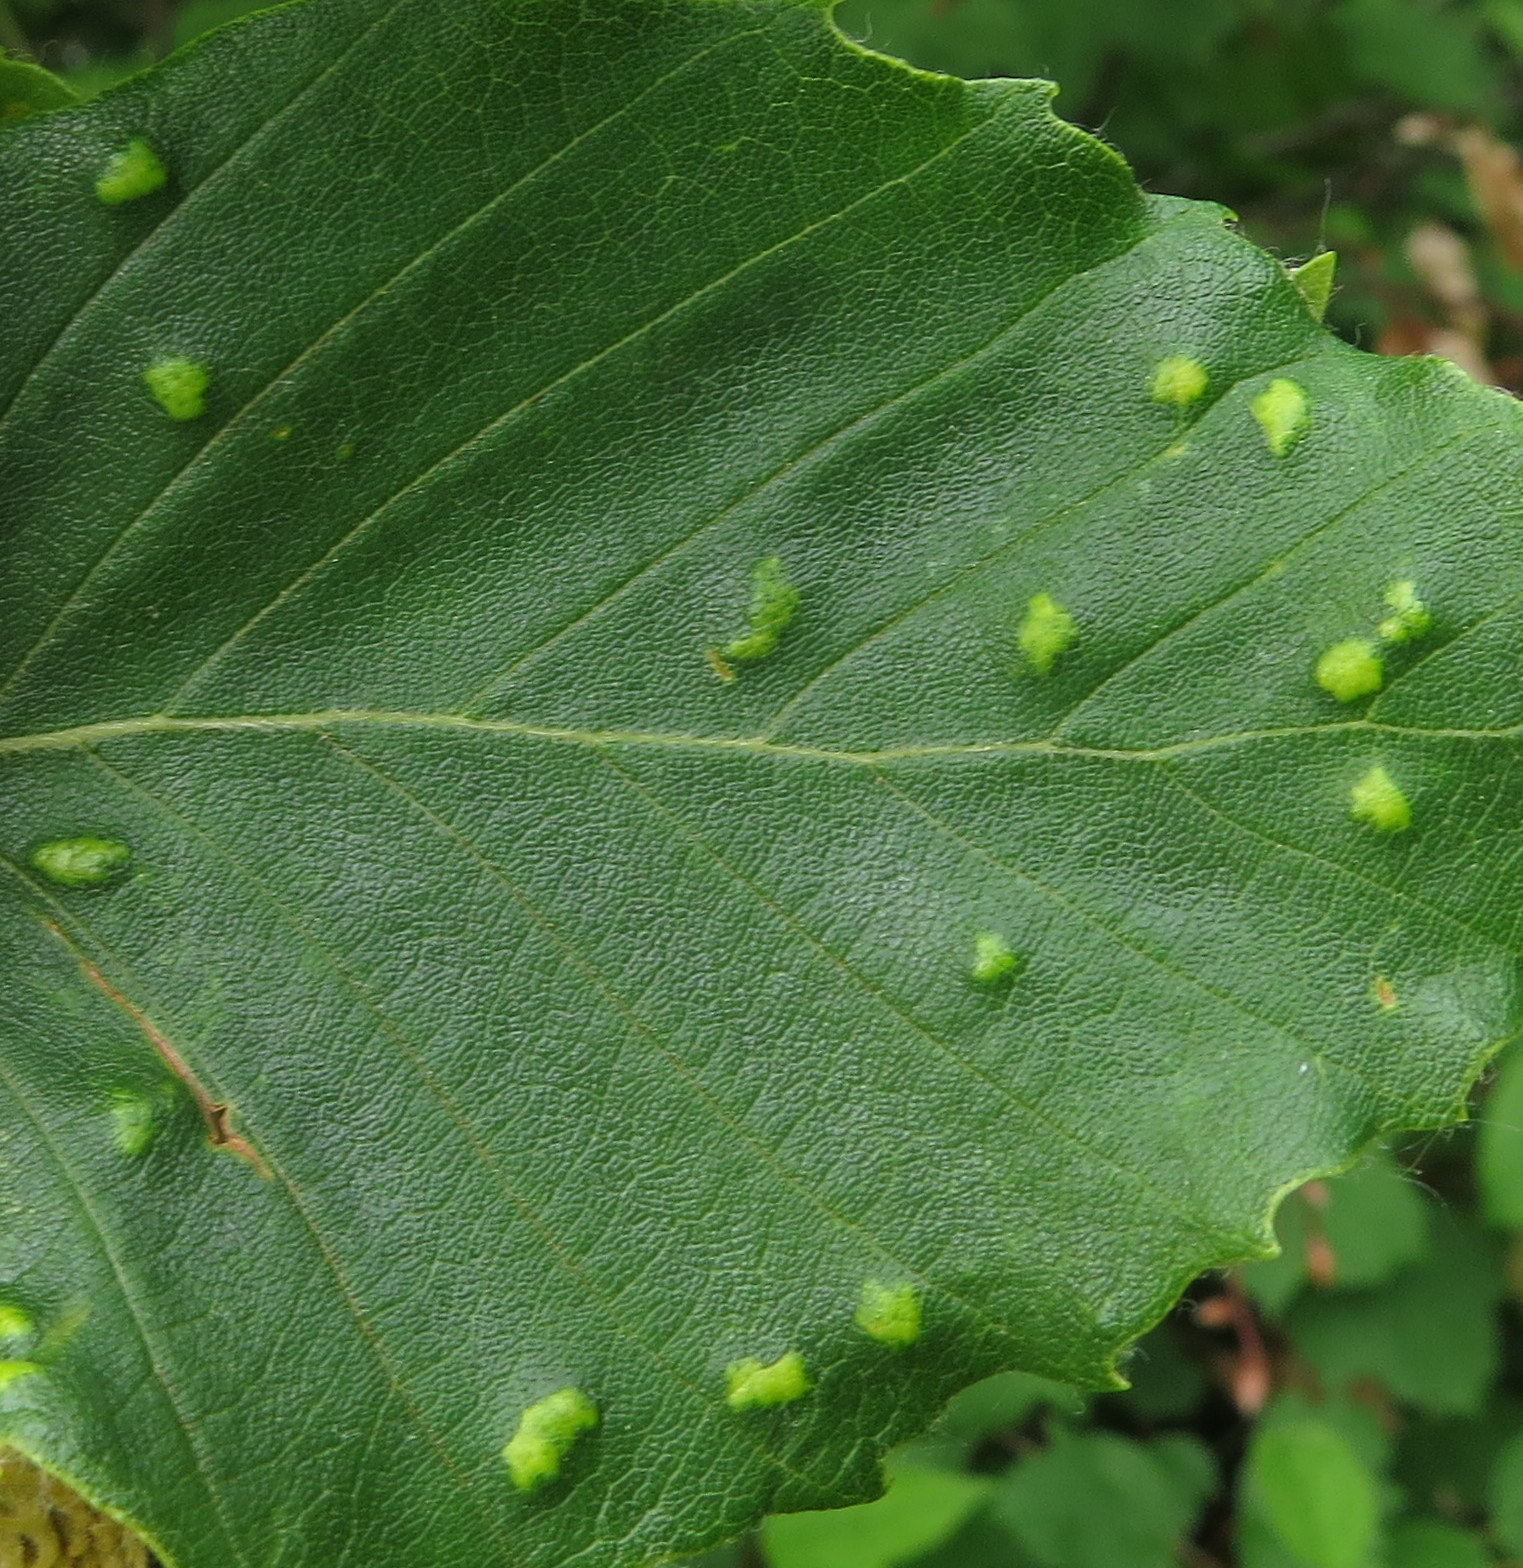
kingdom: Animalia
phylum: Arthropoda
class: Arachnida
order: Trombidiformes
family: Eriophyidae
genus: Acalitus
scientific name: Acalitus
